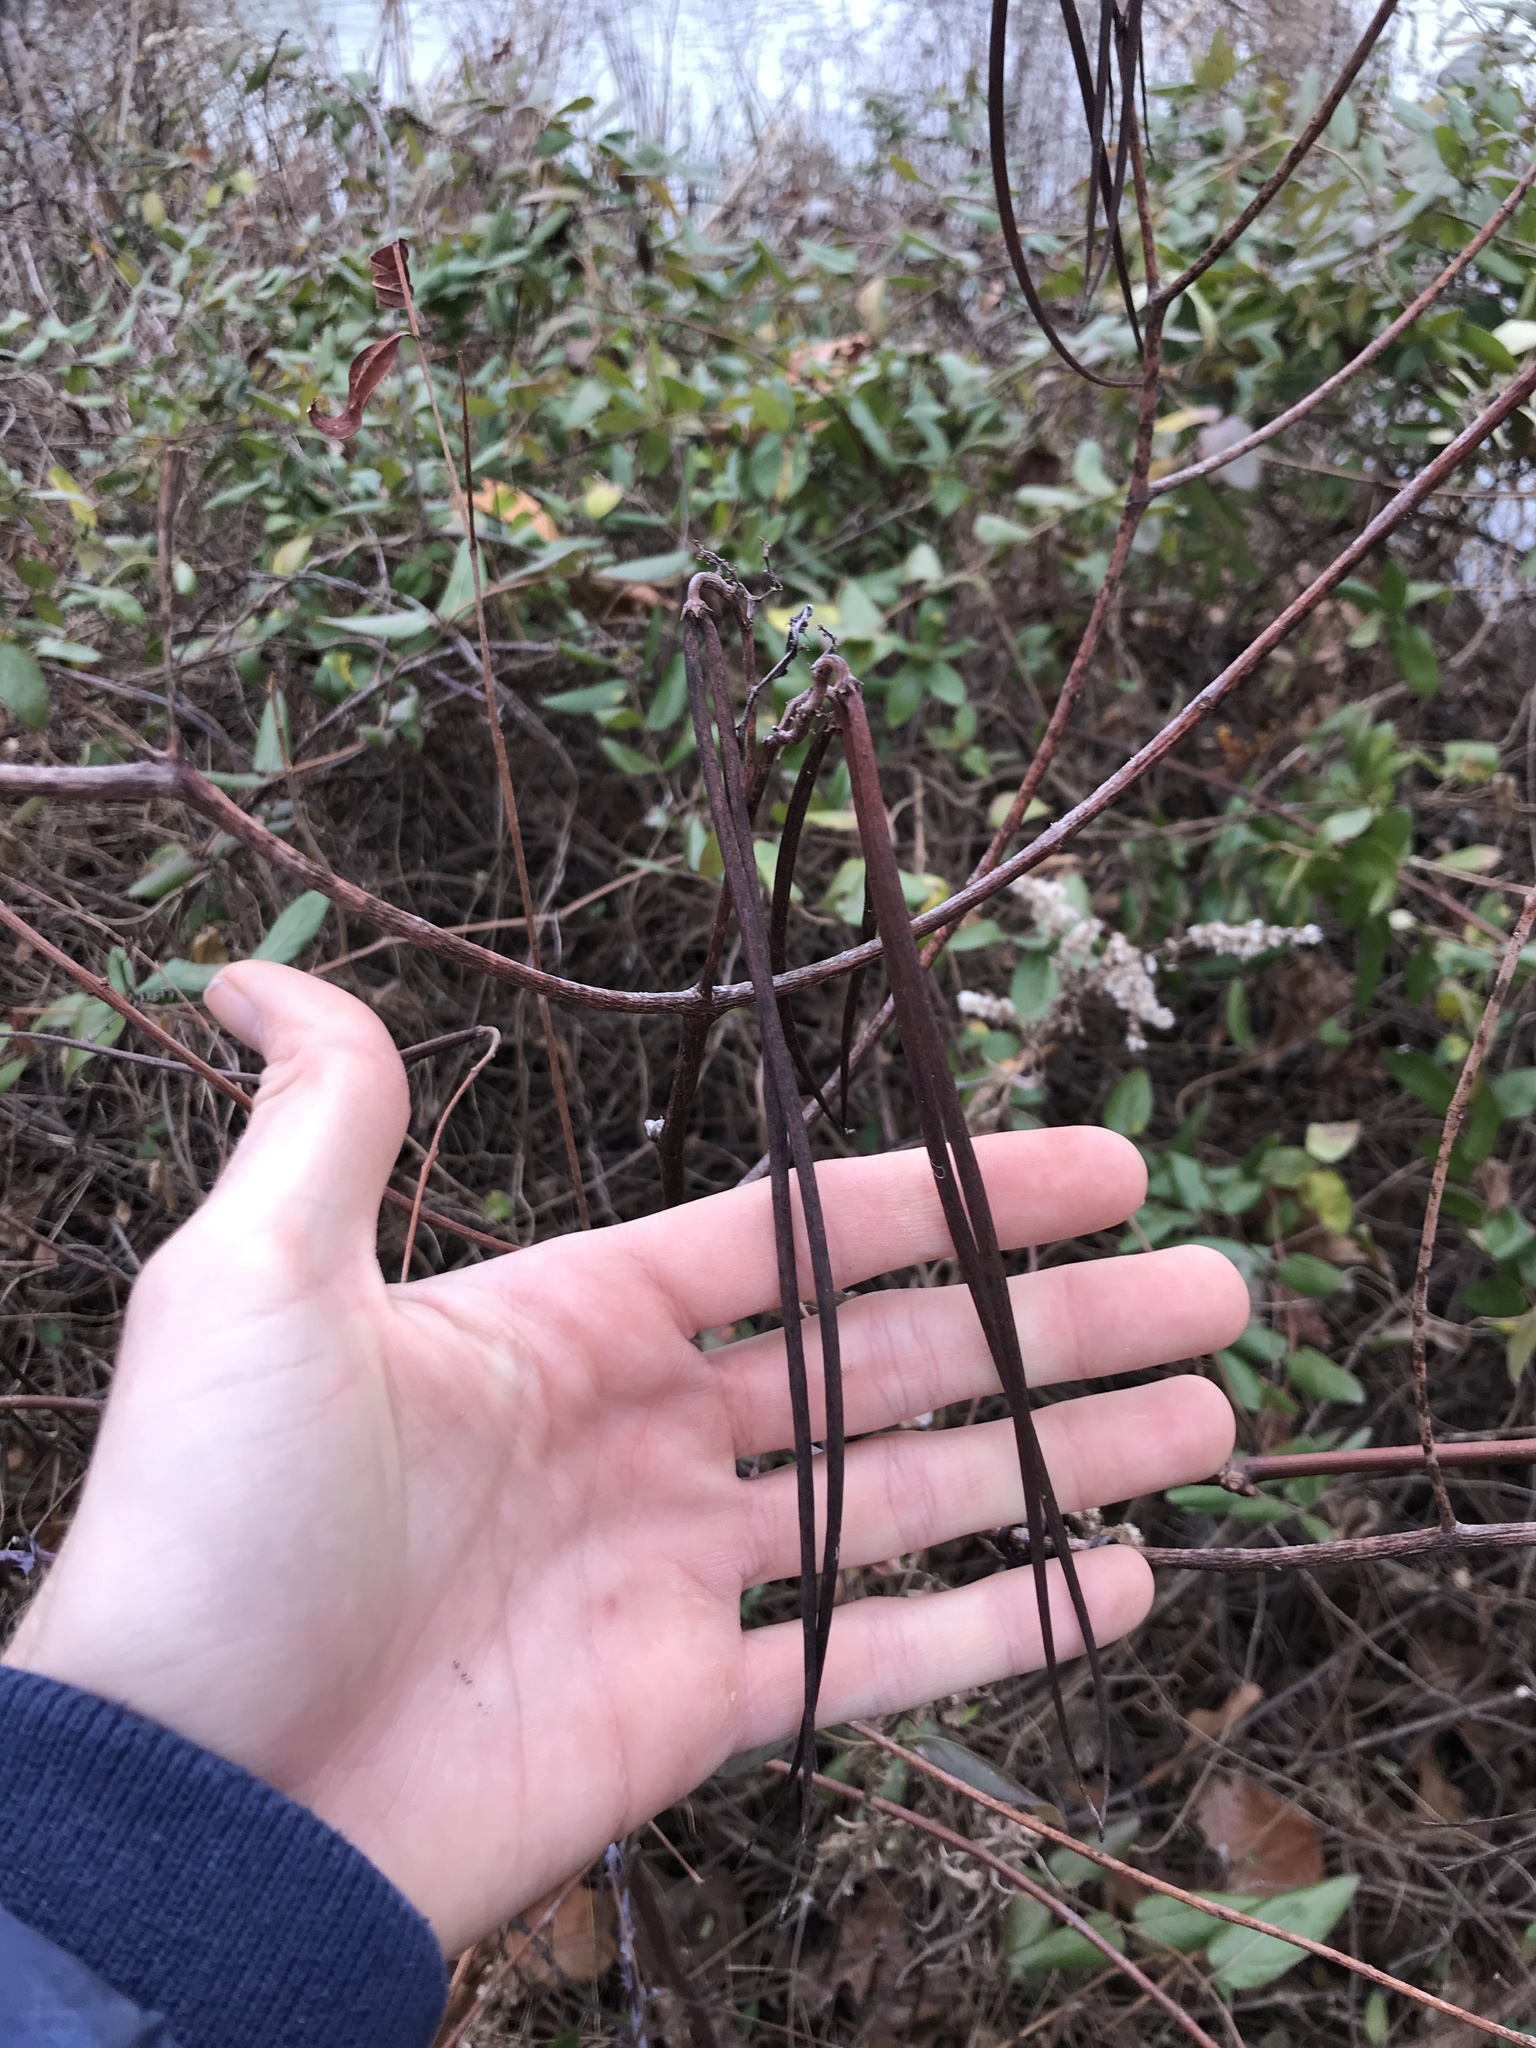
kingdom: Plantae
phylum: Tracheophyta
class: Magnoliopsida
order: Gentianales
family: Apocynaceae
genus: Apocynum
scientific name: Apocynum cannabinum
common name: Hemp dogbane
